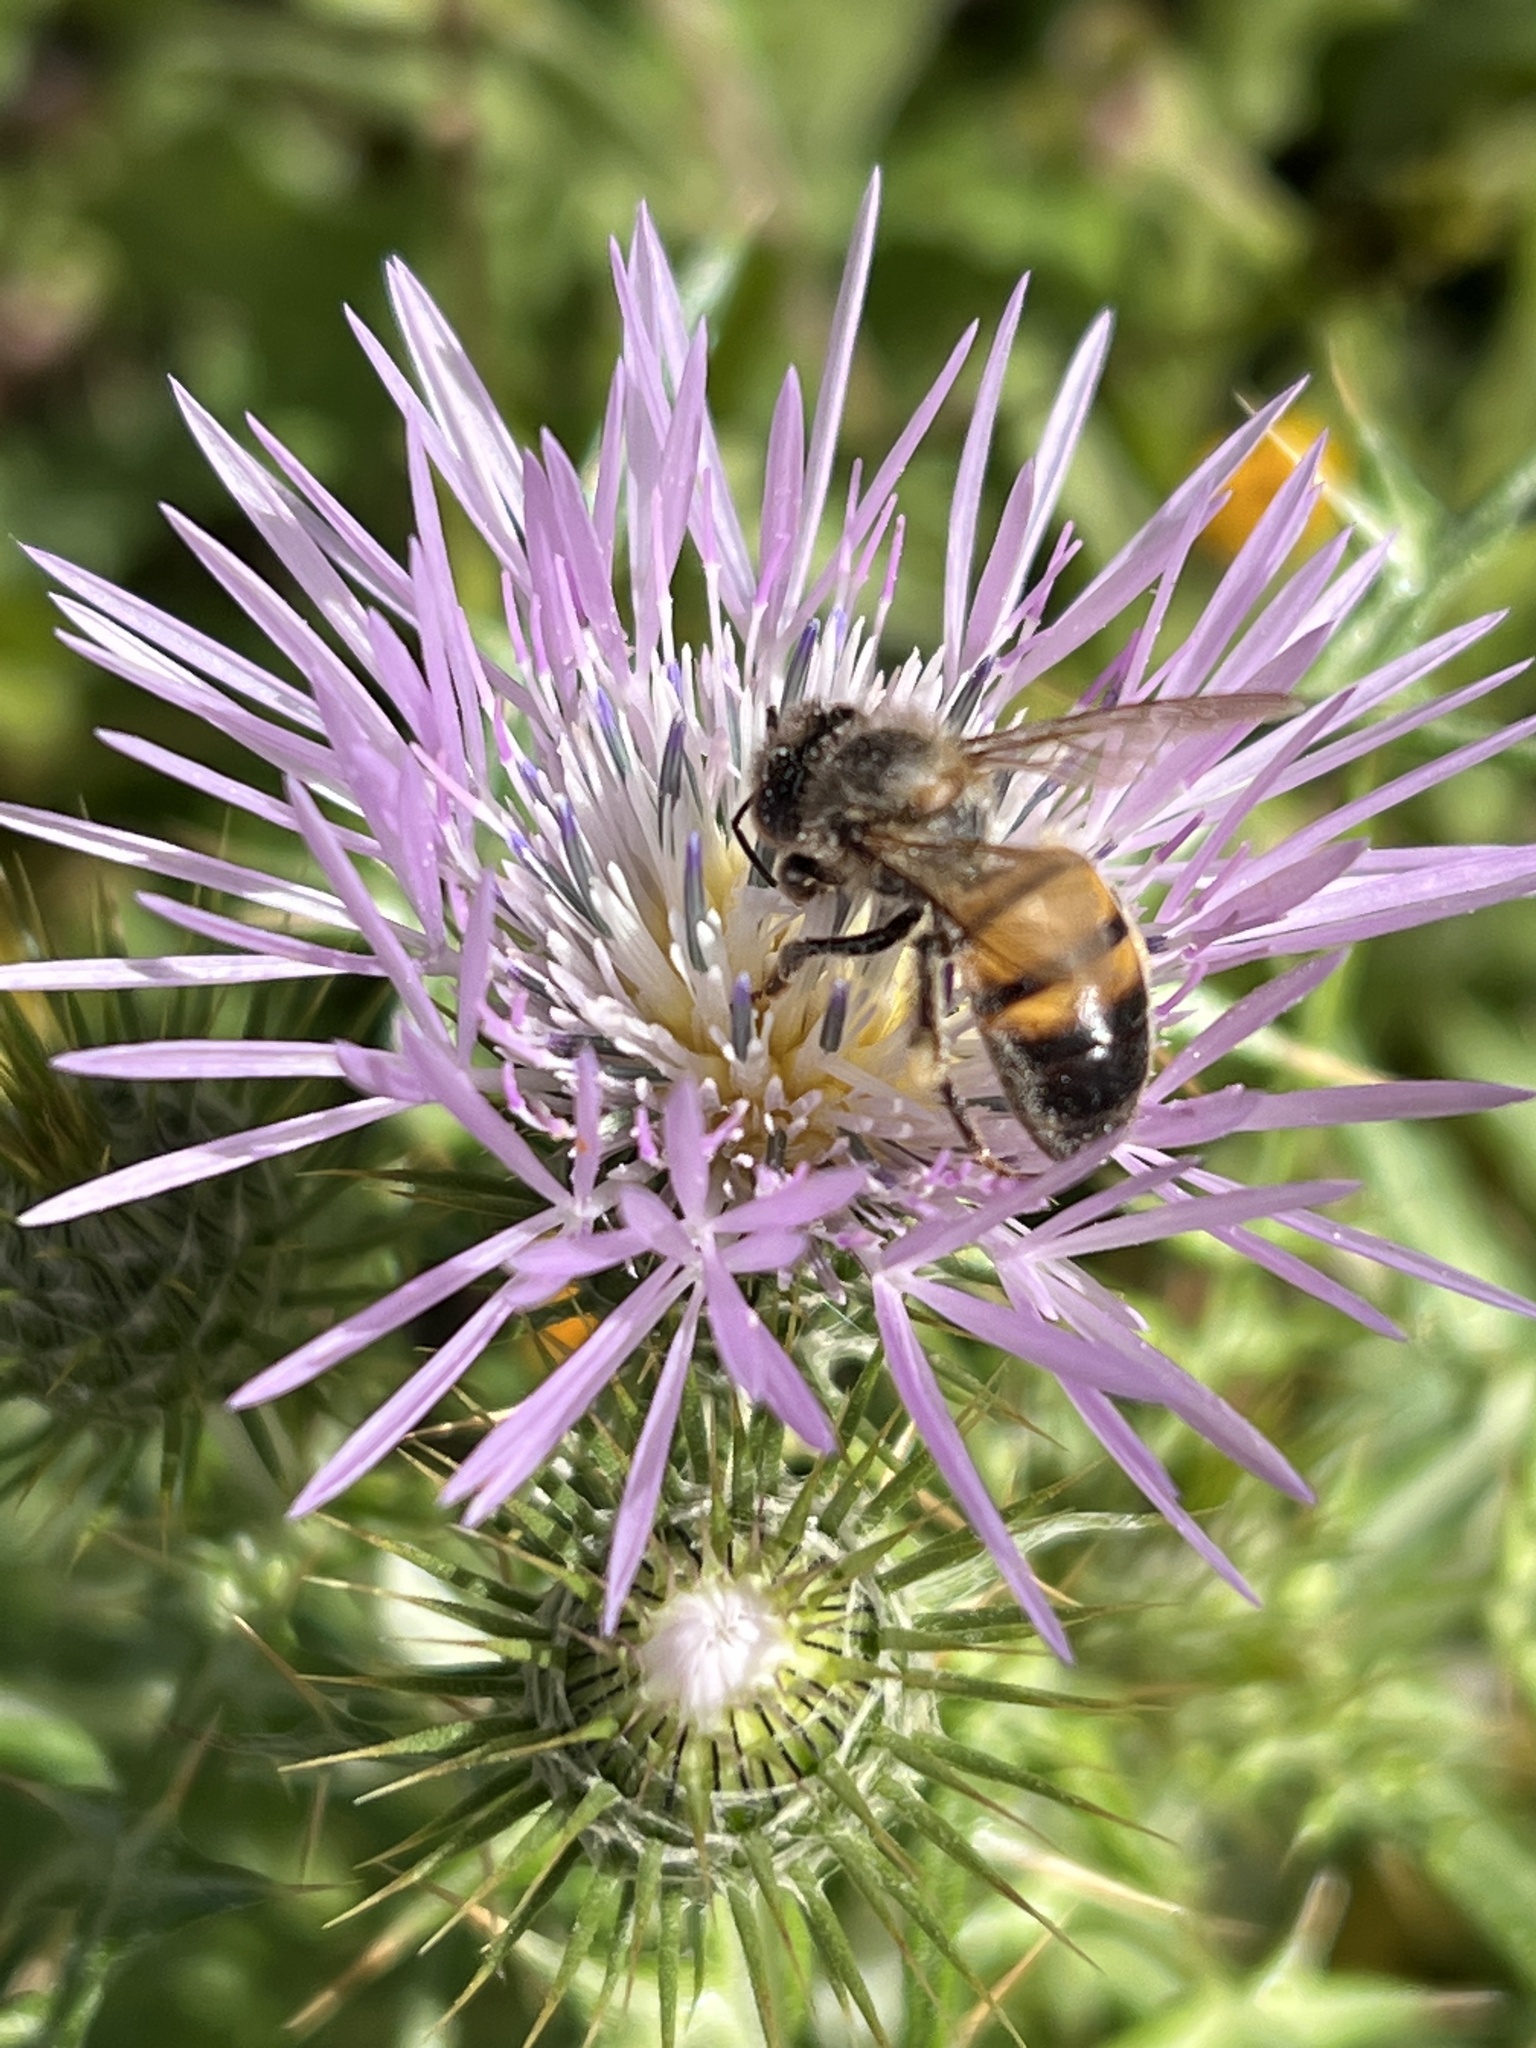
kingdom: Animalia
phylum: Arthropoda
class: Insecta
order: Hymenoptera
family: Apidae
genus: Apis
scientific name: Apis mellifera
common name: Honey bee
